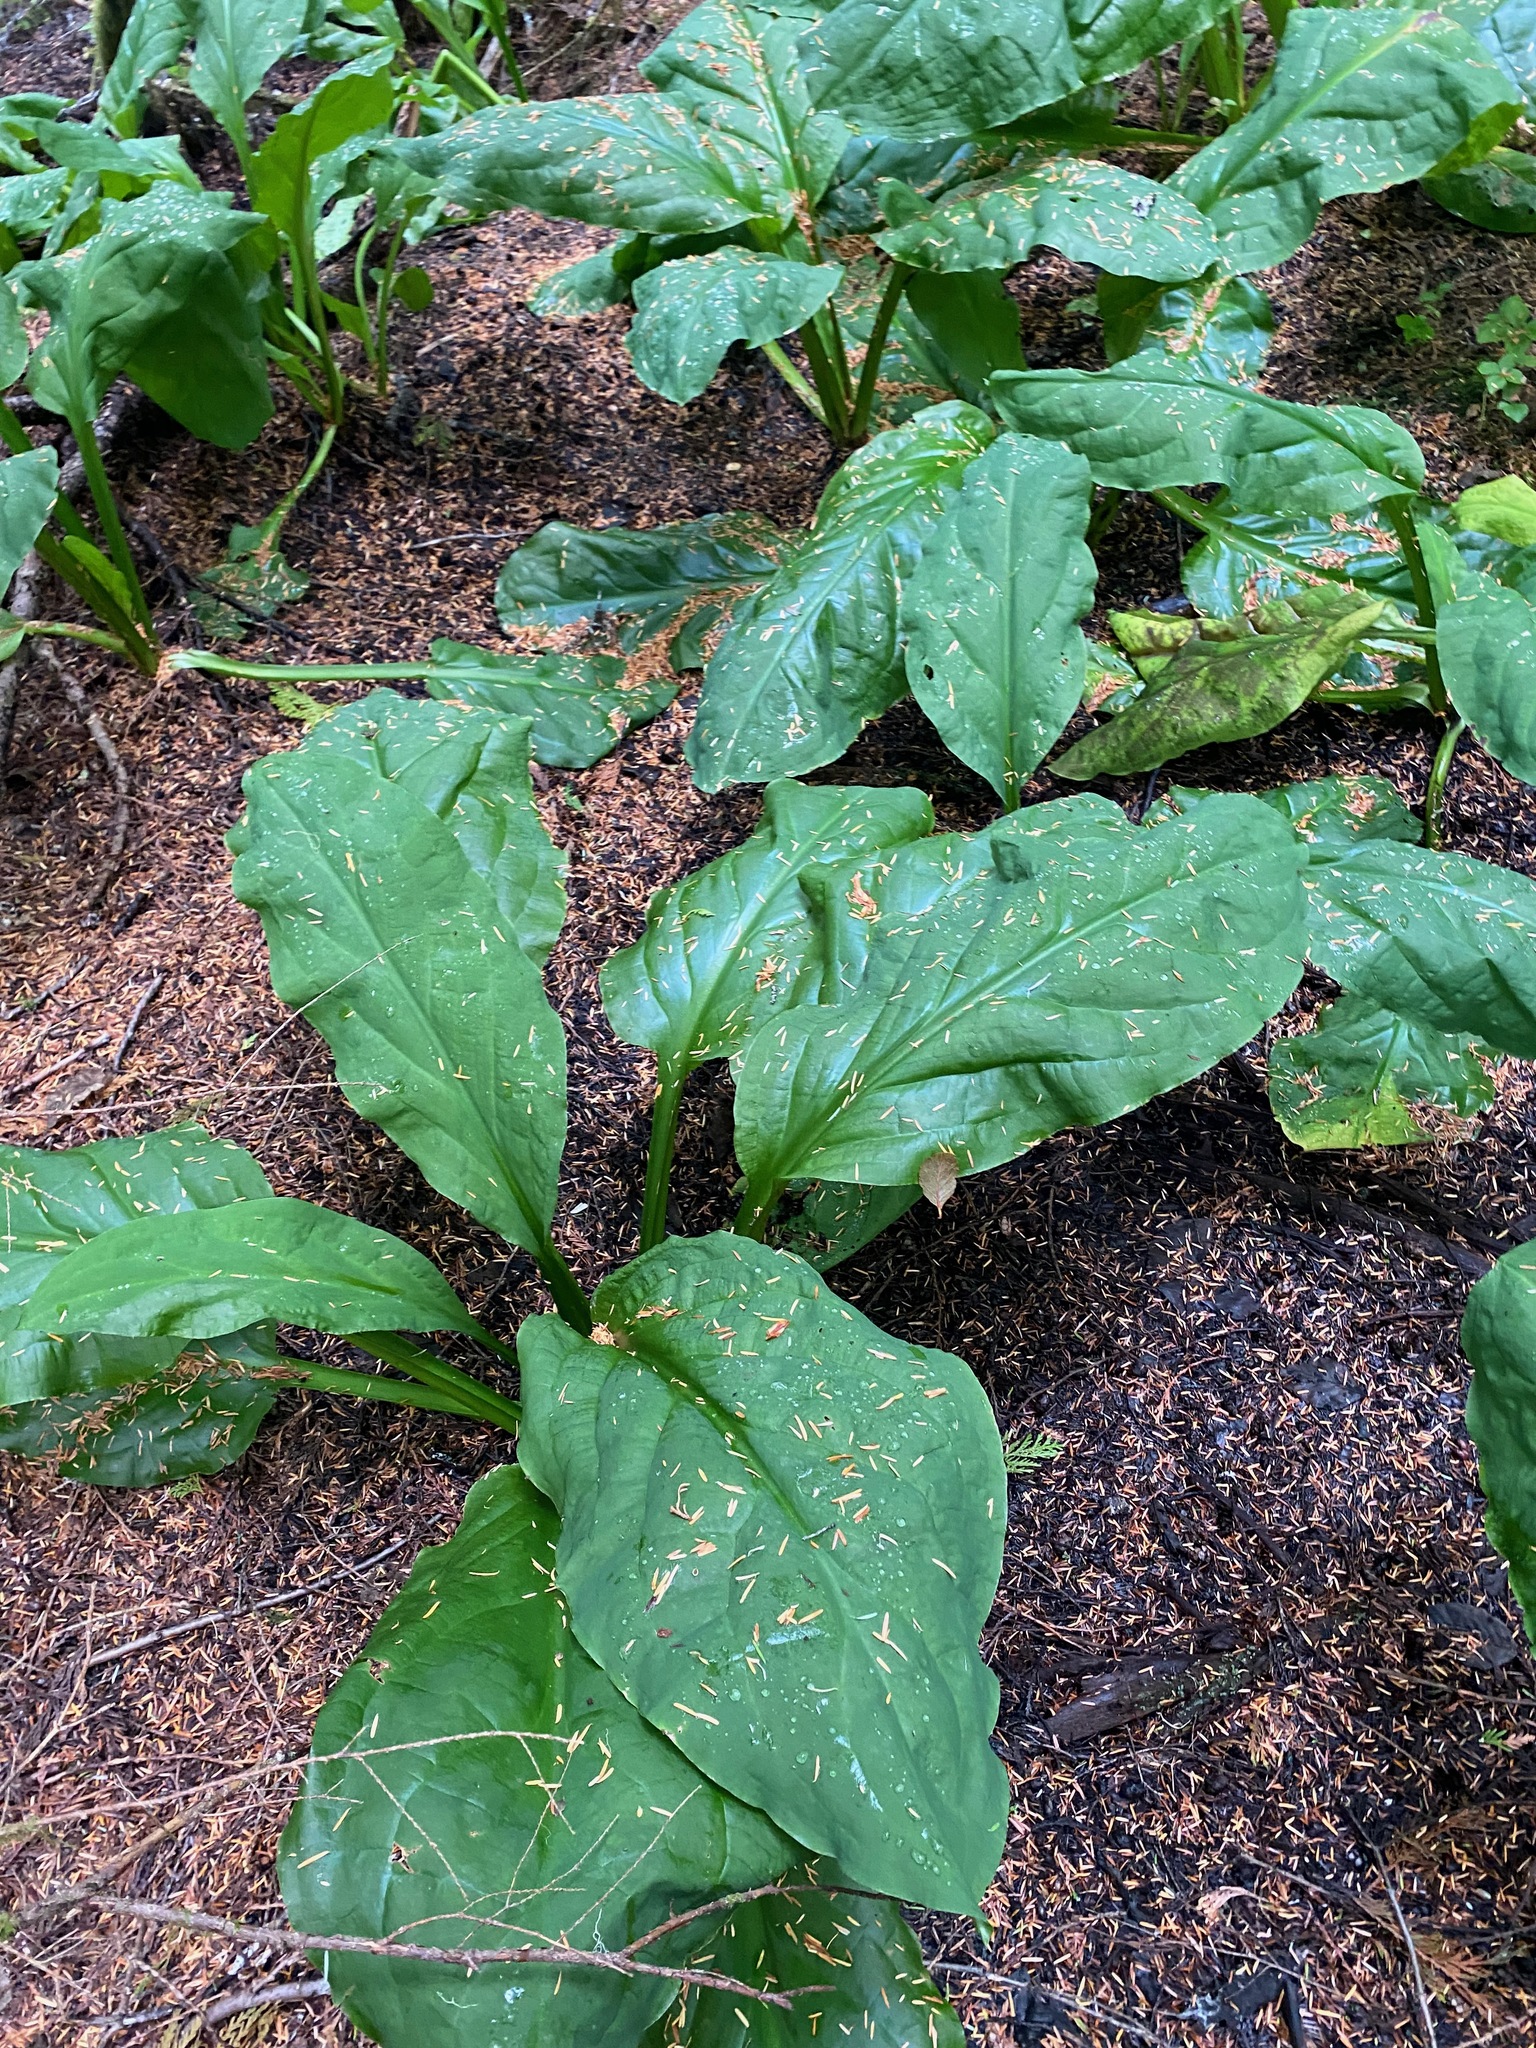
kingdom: Plantae
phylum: Tracheophyta
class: Liliopsida
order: Alismatales
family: Araceae
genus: Lysichiton
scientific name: Lysichiton americanus
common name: American skunk cabbage
